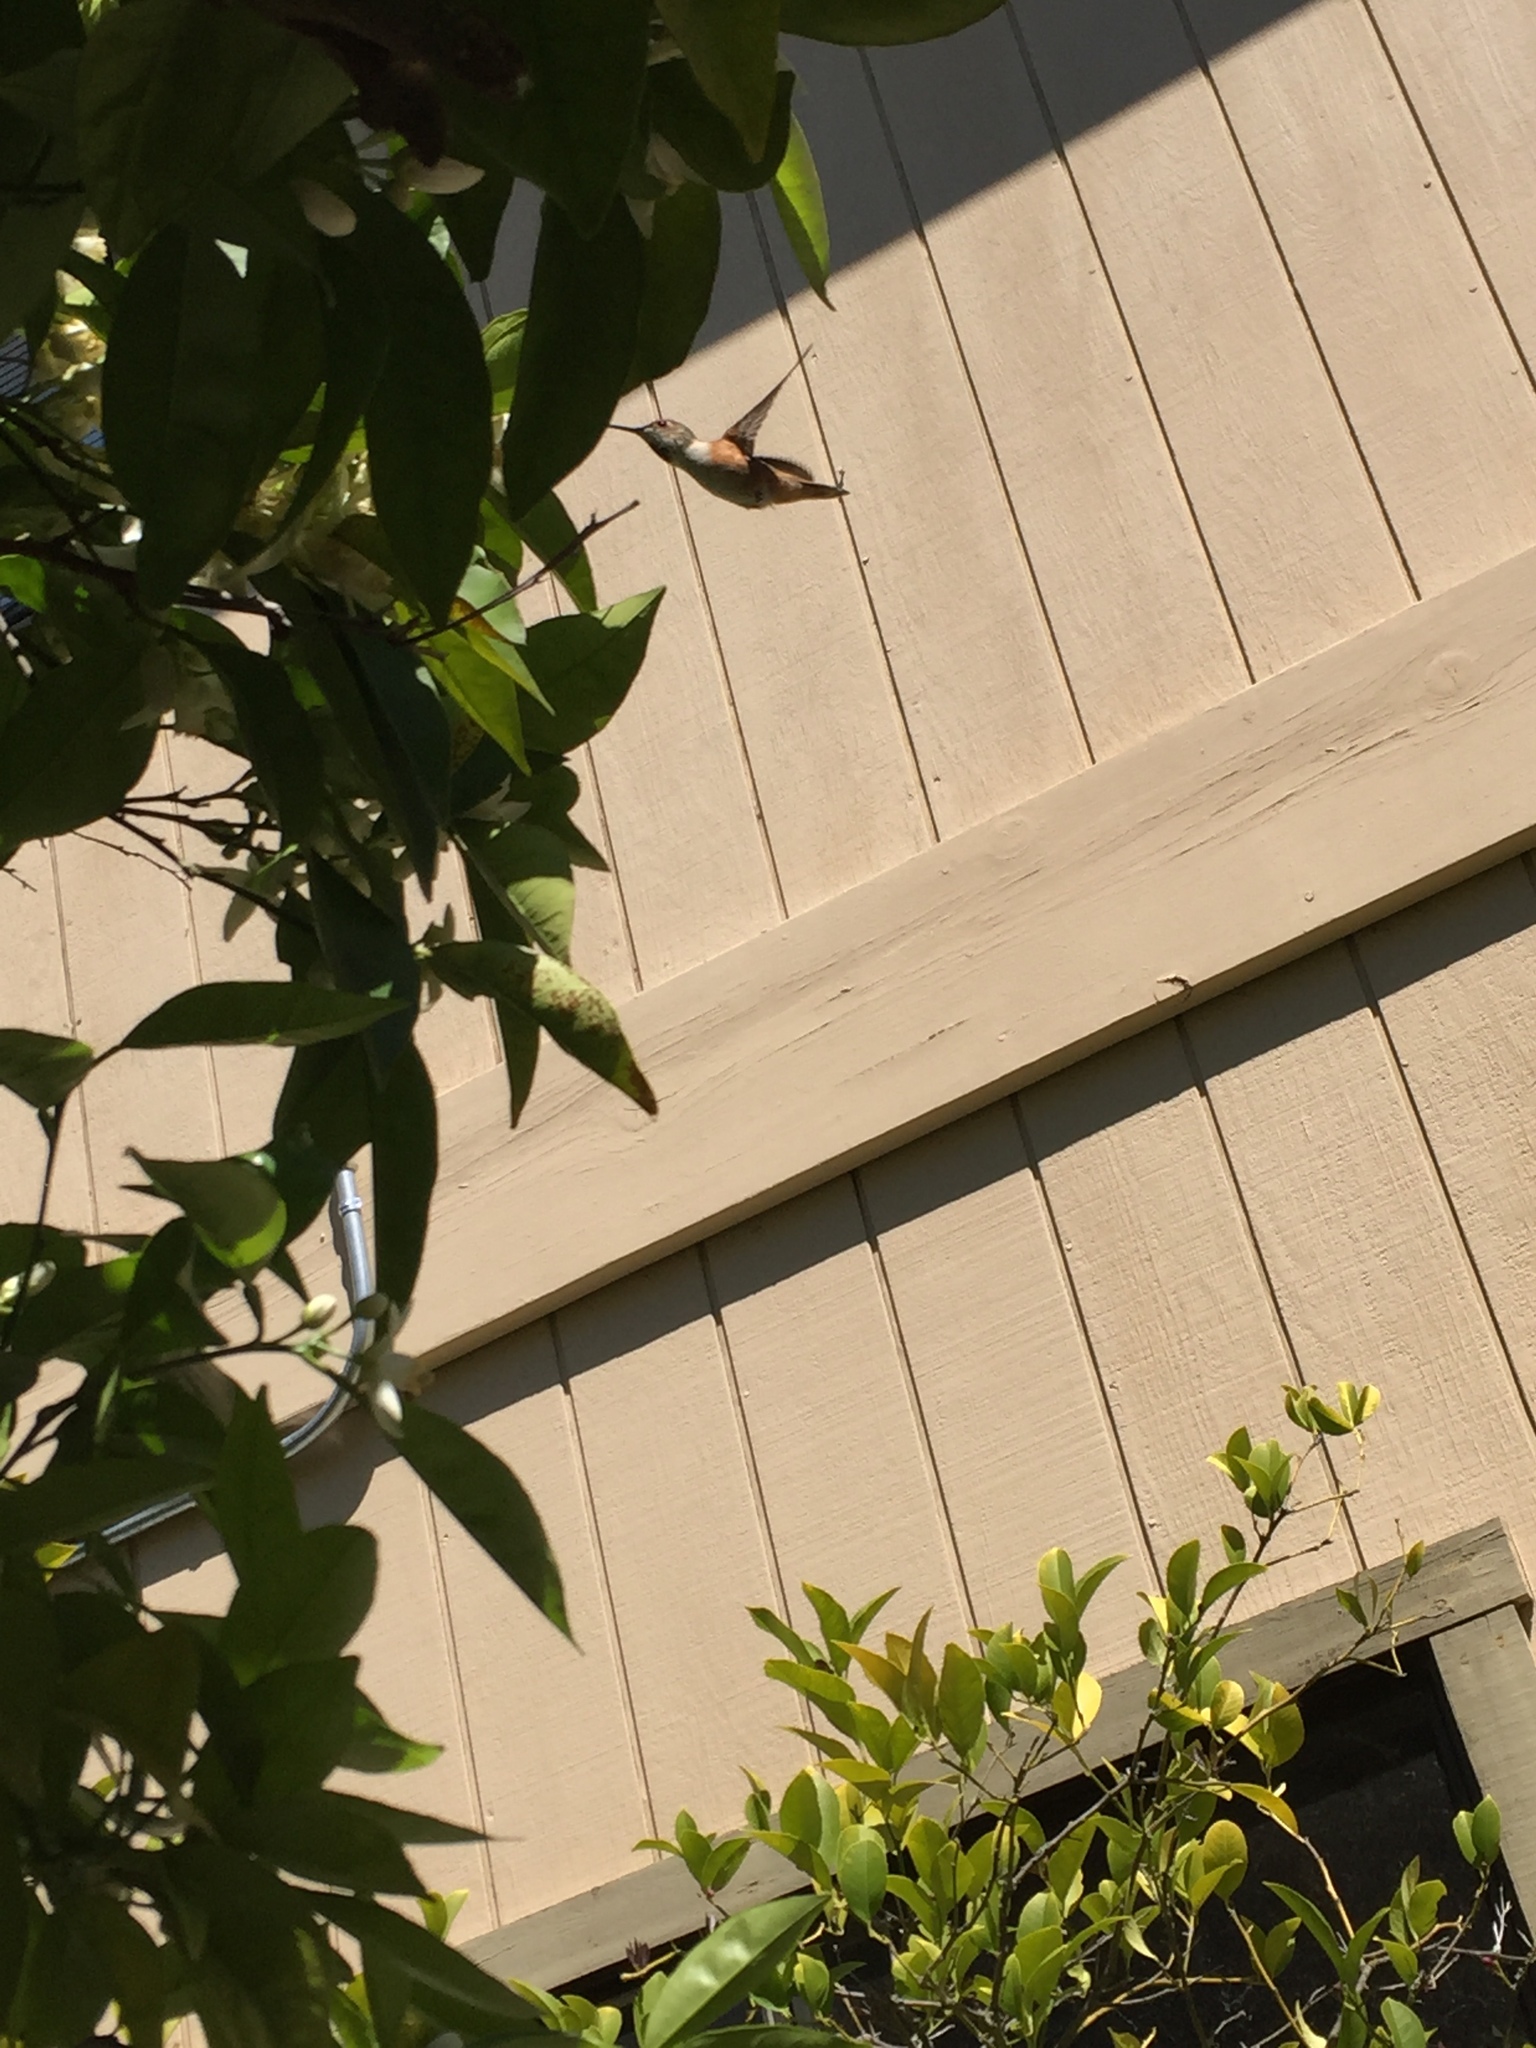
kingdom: Animalia
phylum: Chordata
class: Aves
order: Apodiformes
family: Trochilidae
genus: Selasphorus
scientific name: Selasphorus
